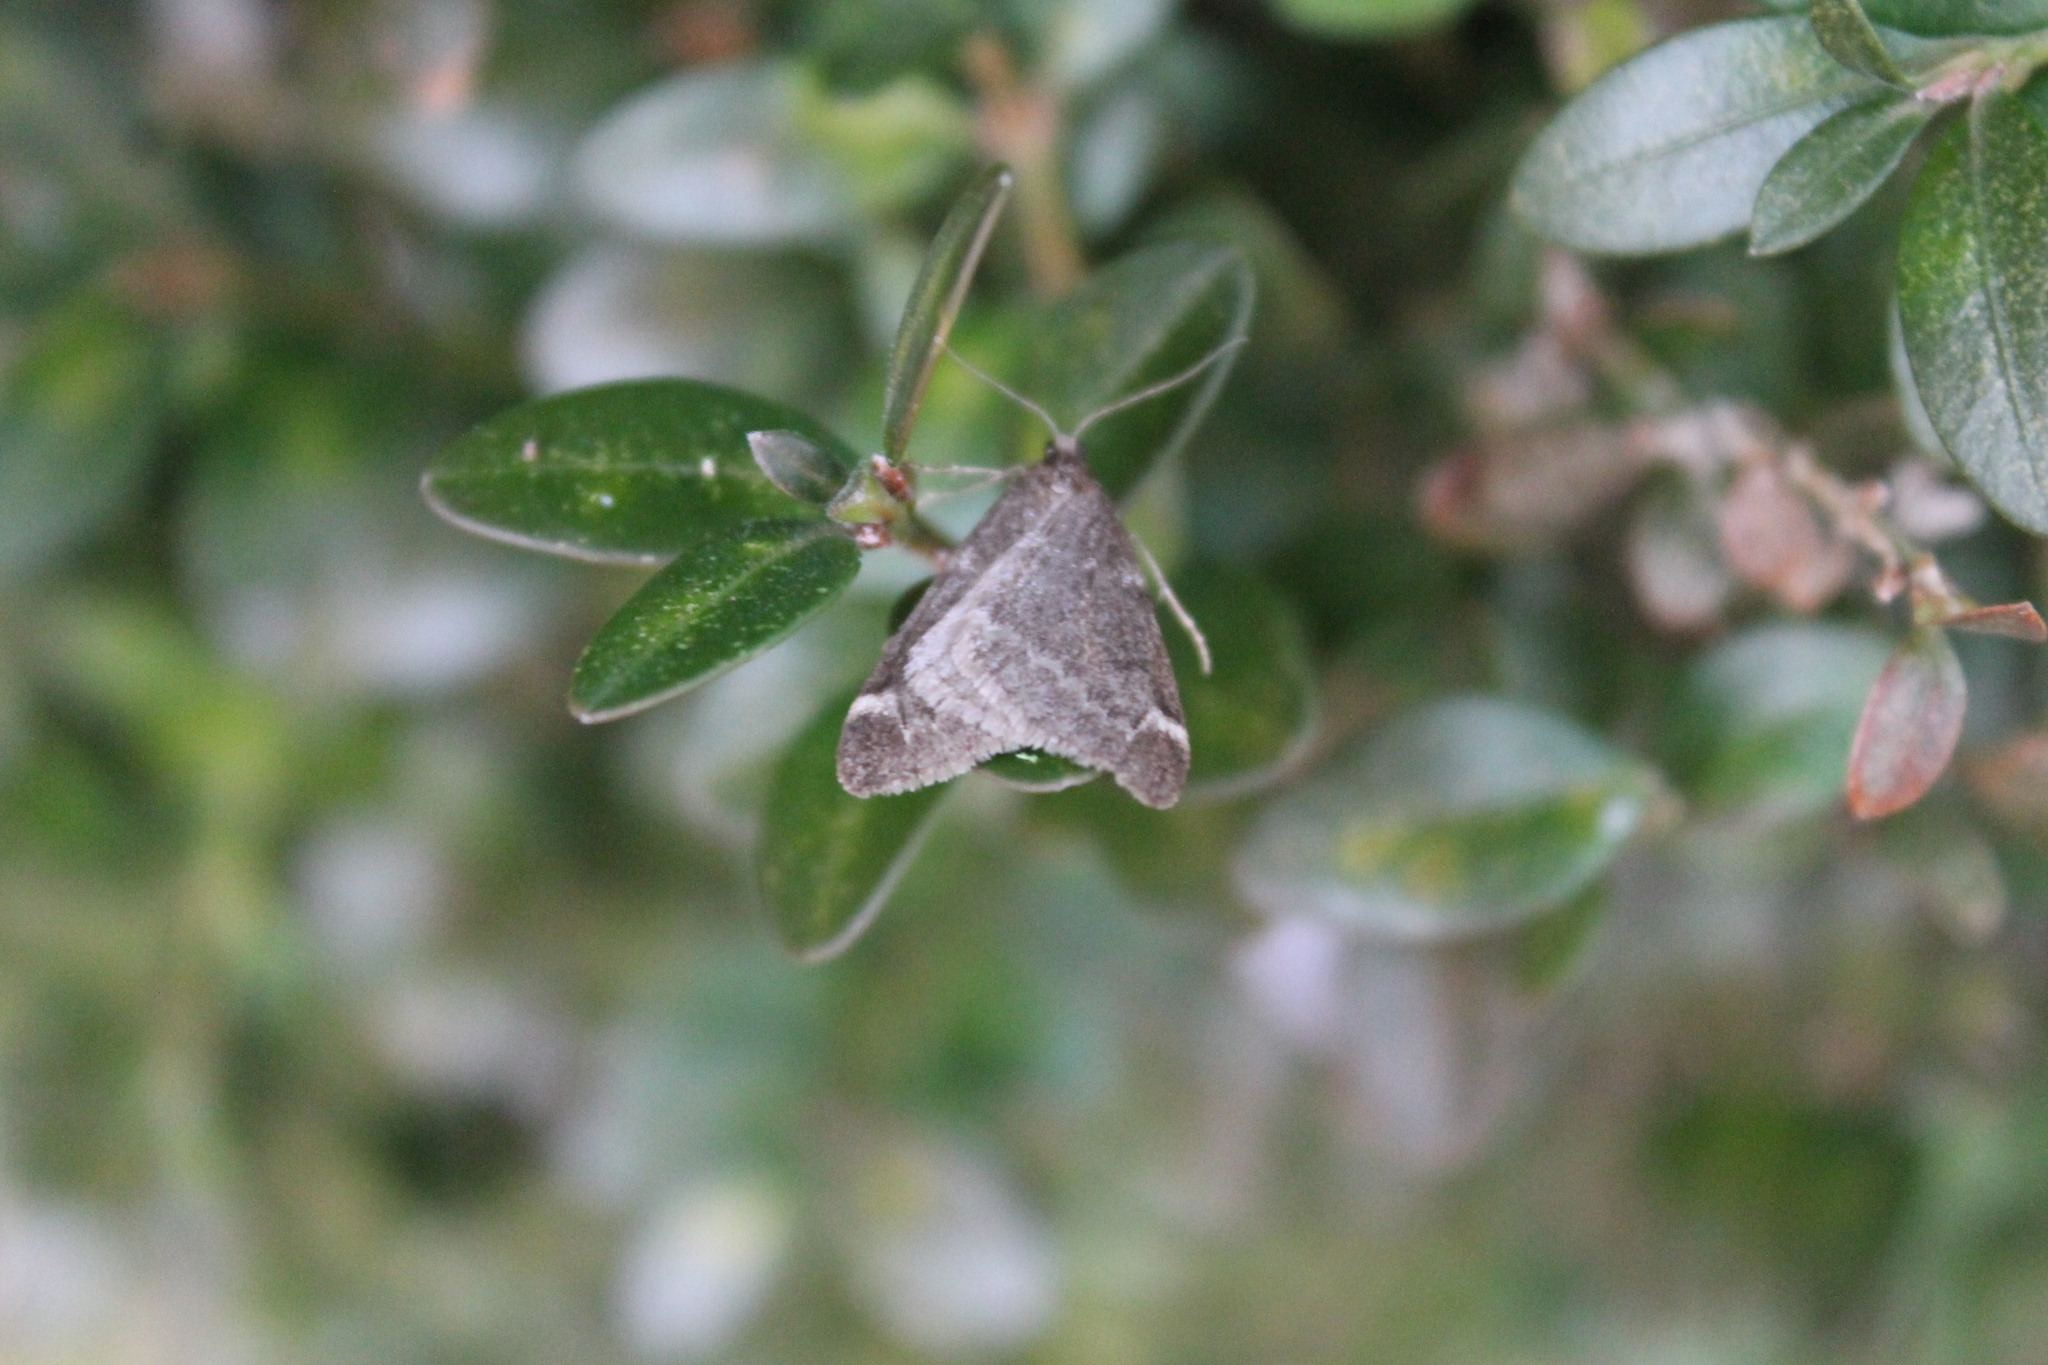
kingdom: Animalia
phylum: Arthropoda
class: Insecta
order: Lepidoptera
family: Geometridae
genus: Alsophila
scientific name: Alsophila pometaria
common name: Fall cankerworm
